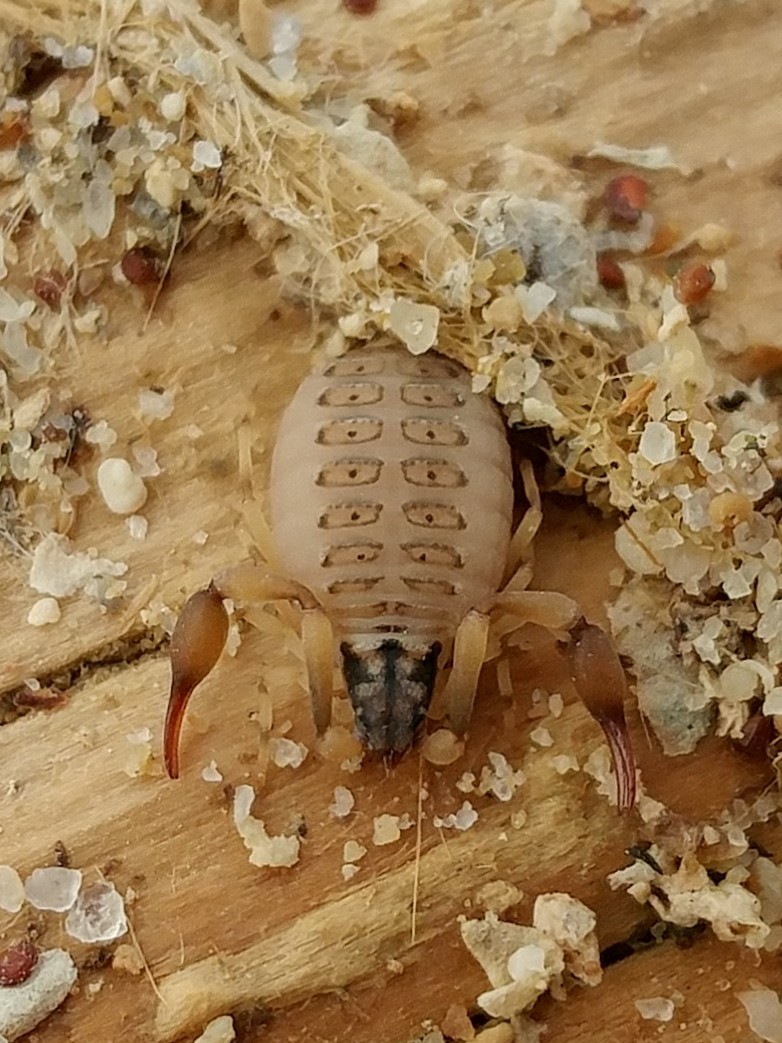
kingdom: Animalia
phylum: Arthropoda
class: Arachnida
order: Pseudoscorpiones
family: Garypidae
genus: Anchigarypus
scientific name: Anchigarypus californicus
